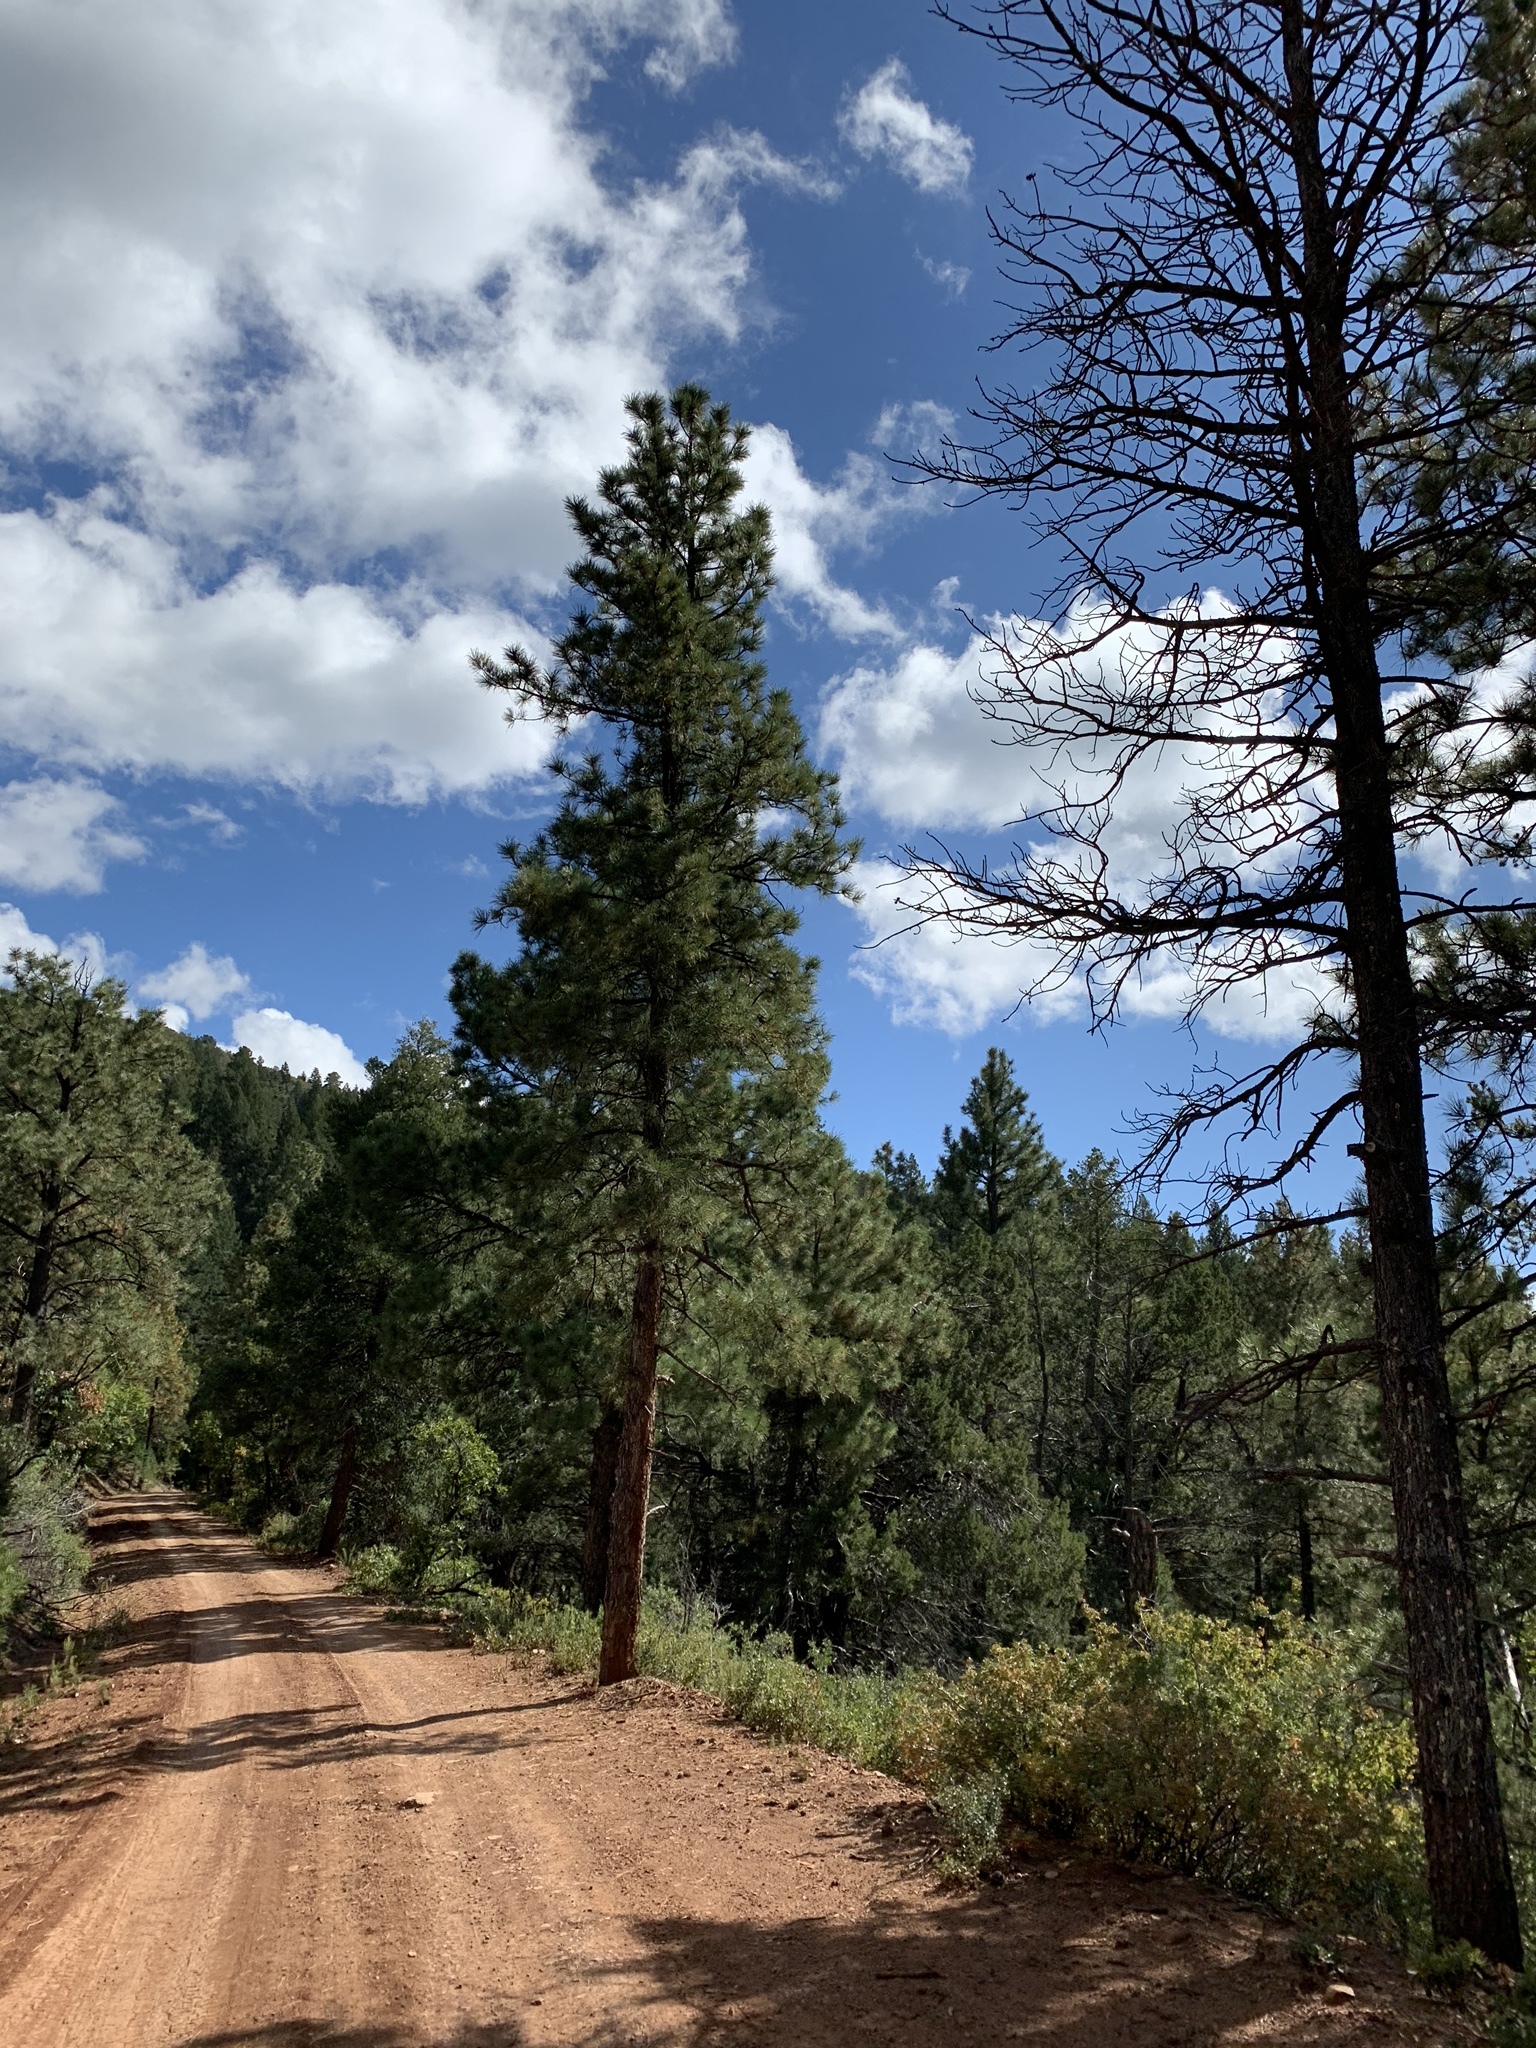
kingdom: Plantae
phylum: Tracheophyta
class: Pinopsida
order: Pinales
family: Pinaceae
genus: Pinus
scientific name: Pinus ponderosa
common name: Western yellow-pine
